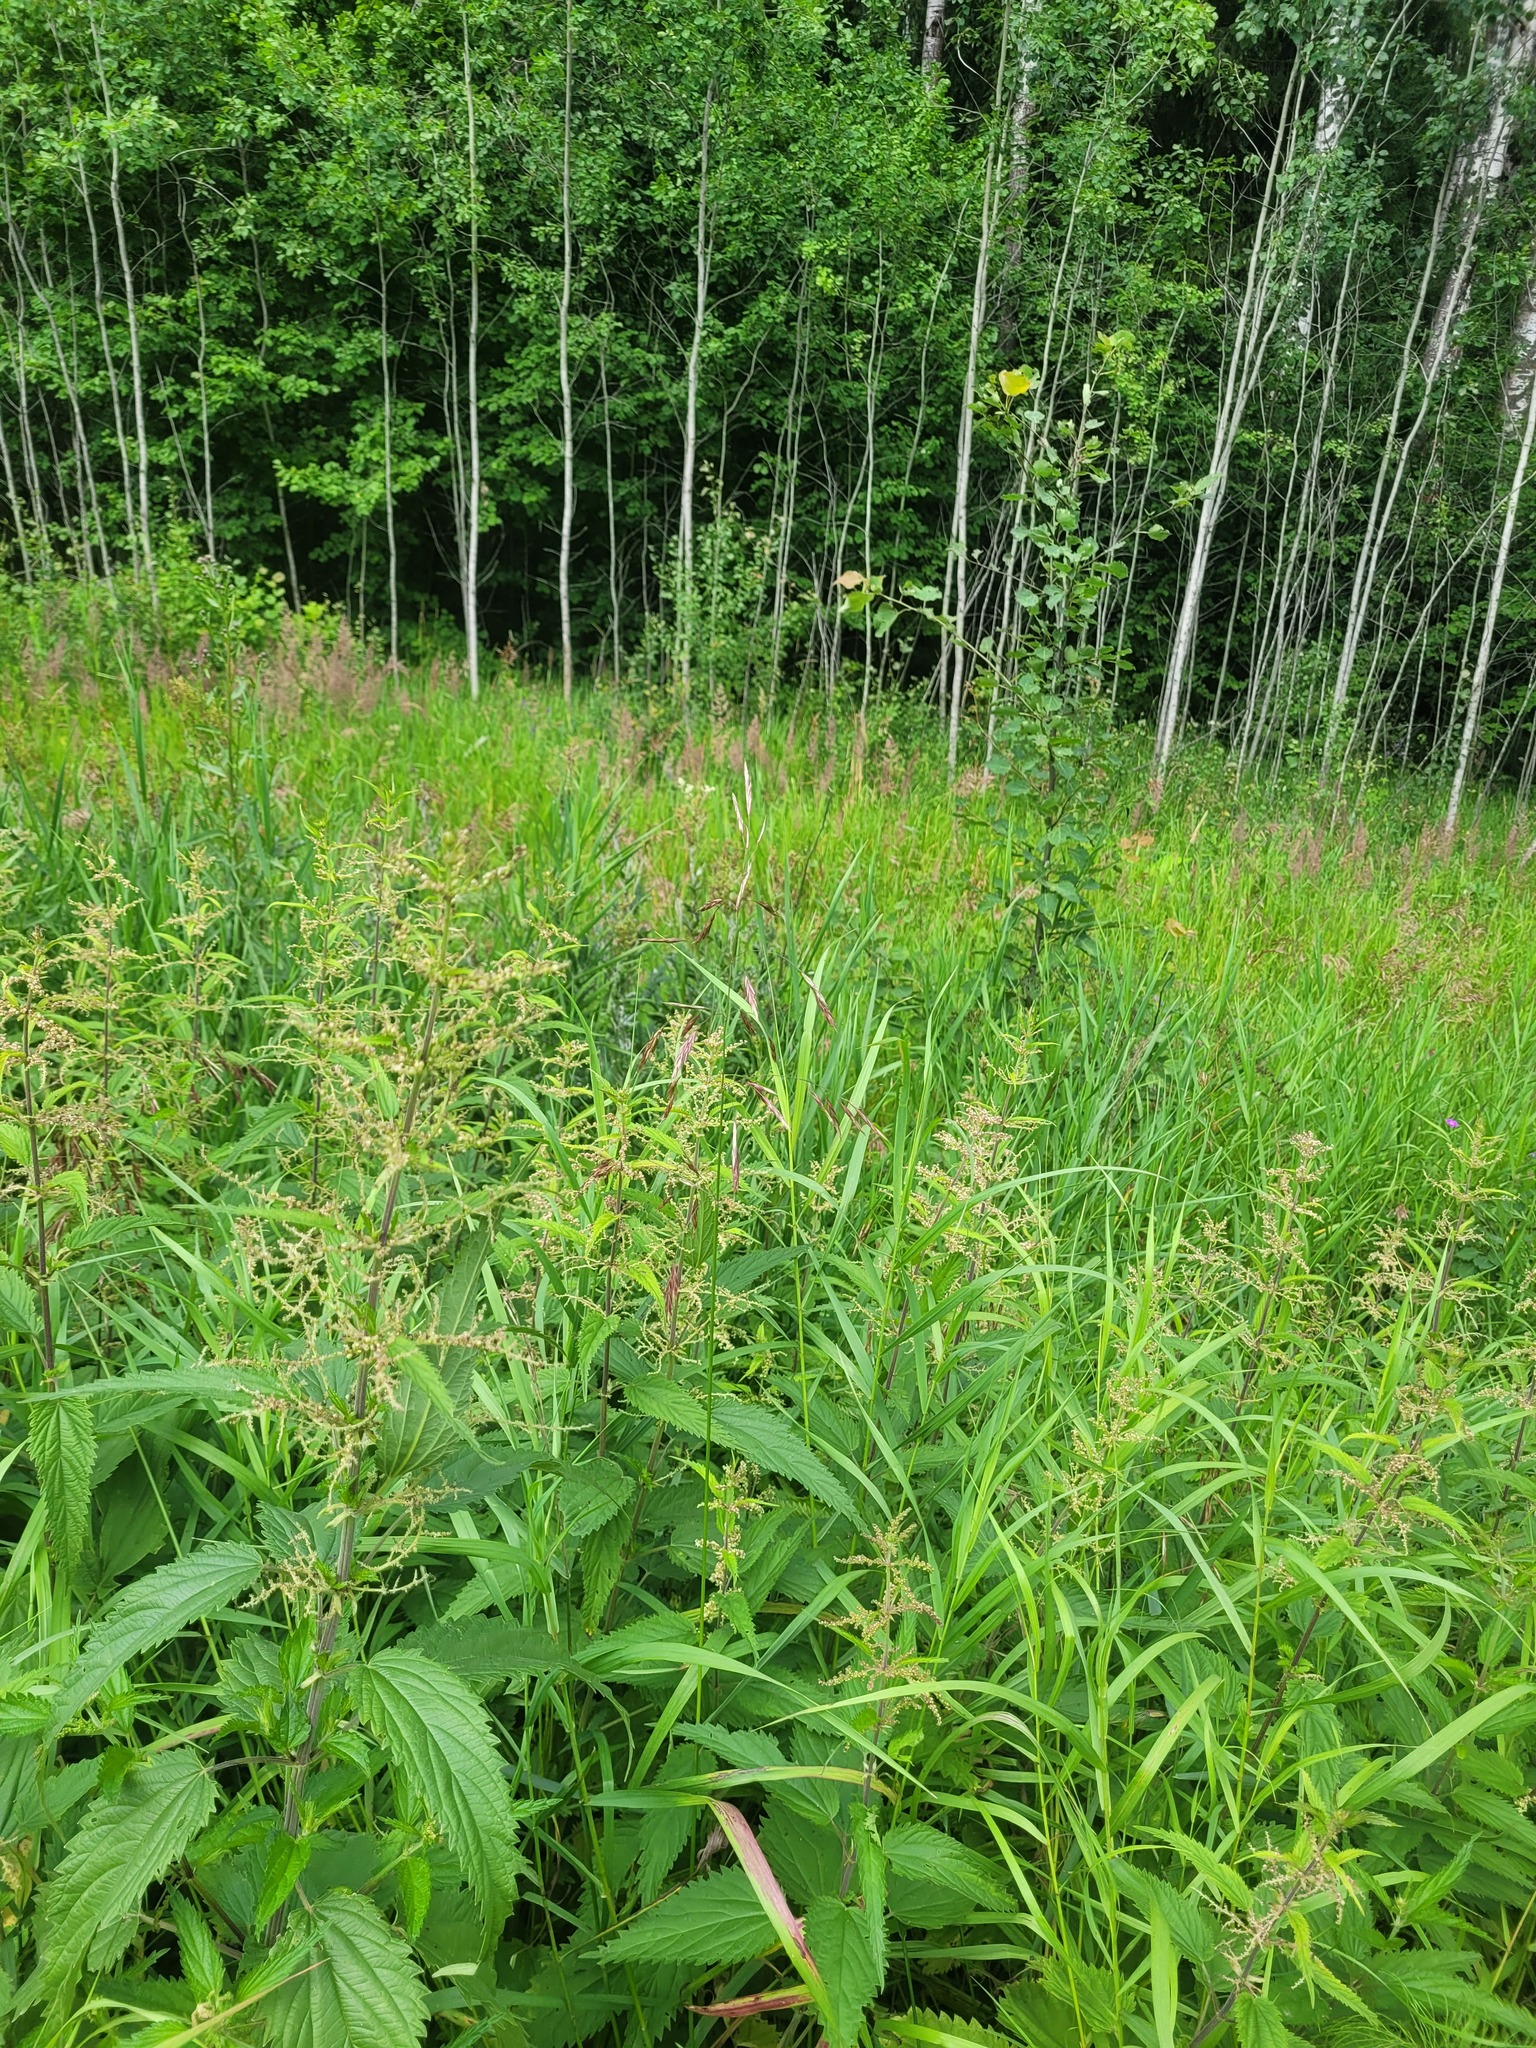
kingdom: Plantae
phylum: Tracheophyta
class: Liliopsida
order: Poales
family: Poaceae
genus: Bromus
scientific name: Bromus inermis
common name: Smooth brome
